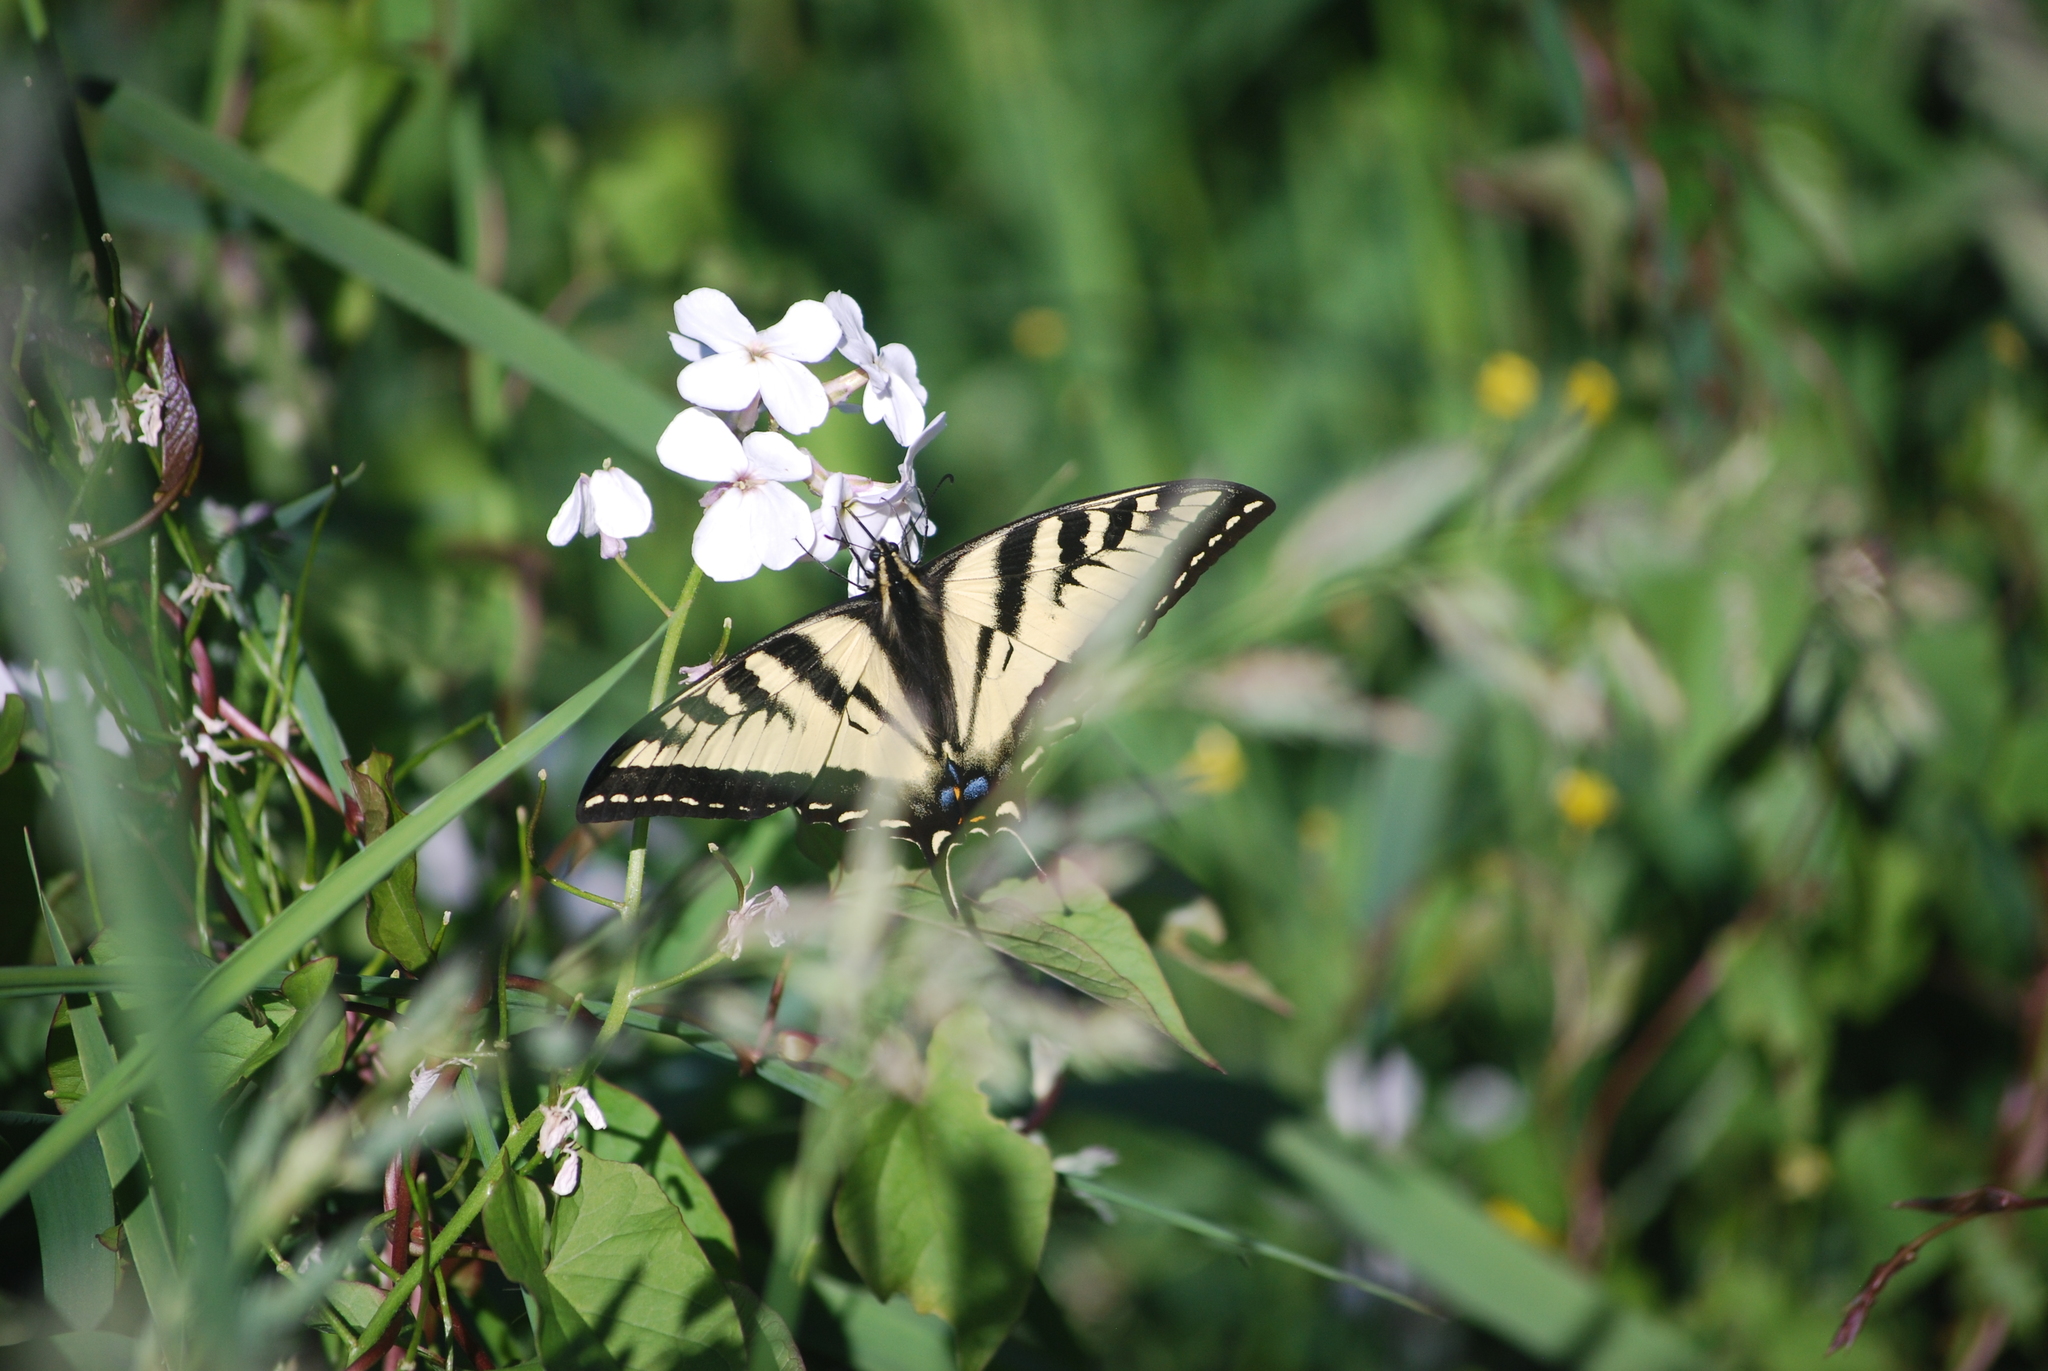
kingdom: Animalia
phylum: Arthropoda
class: Insecta
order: Lepidoptera
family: Papilionidae
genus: Papilio
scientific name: Papilio rutulus
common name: Western tiger swallowtail
